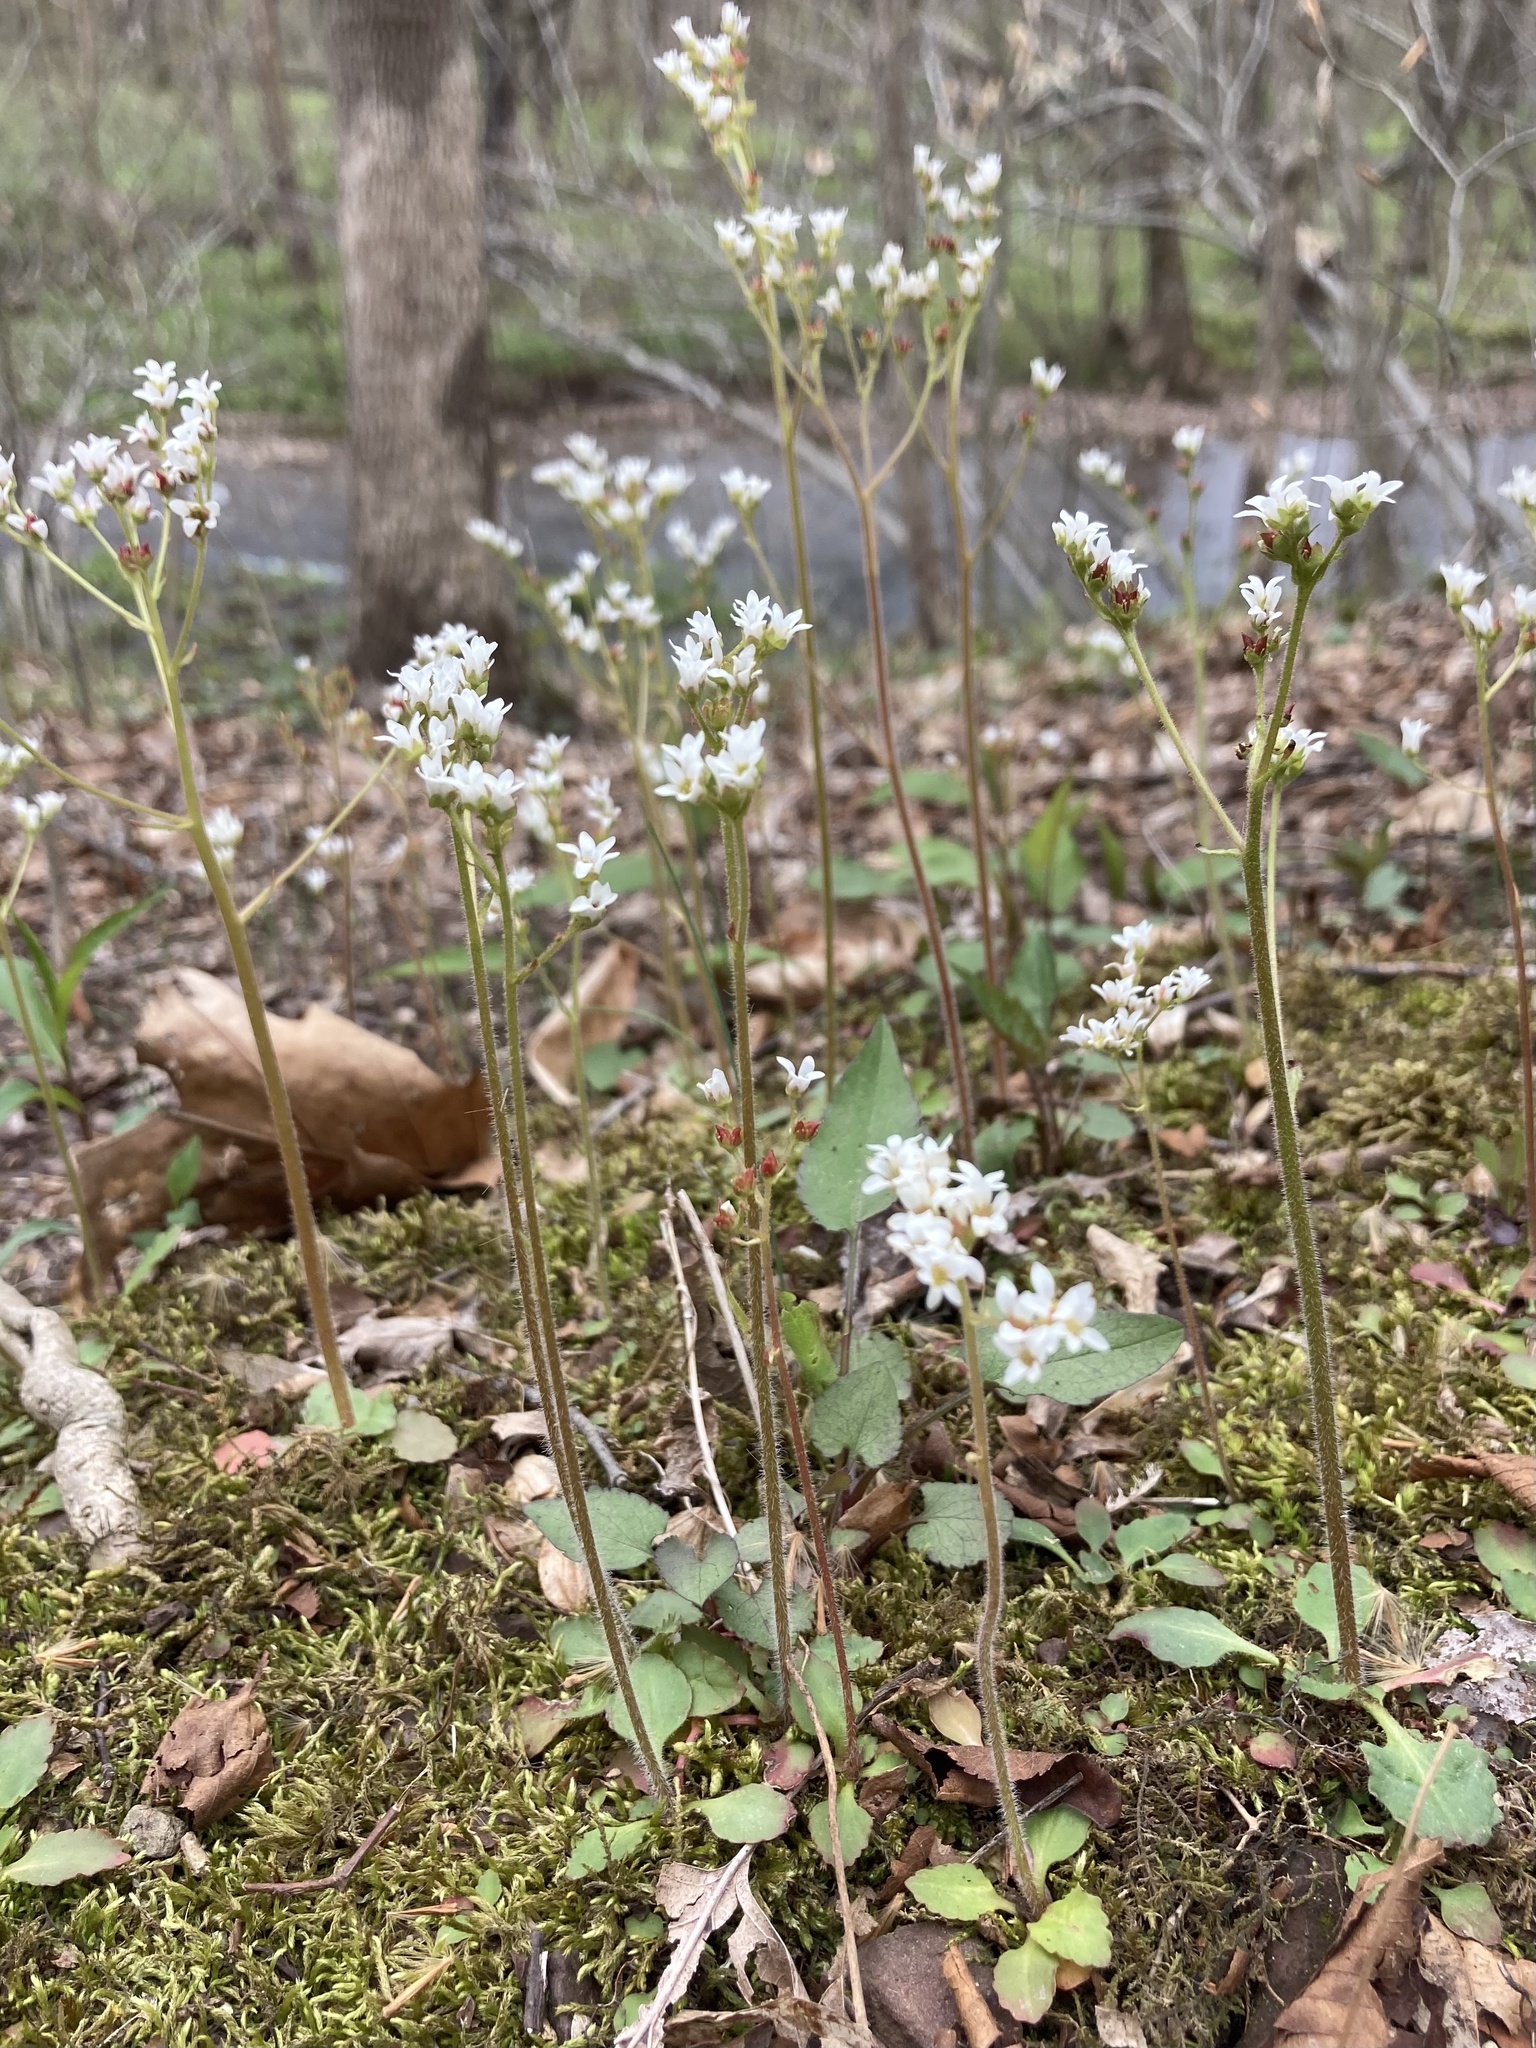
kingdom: Plantae
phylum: Tracheophyta
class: Magnoliopsida
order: Saxifragales
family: Saxifragaceae
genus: Micranthes
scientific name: Micranthes virginiensis
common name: Early saxifrage
